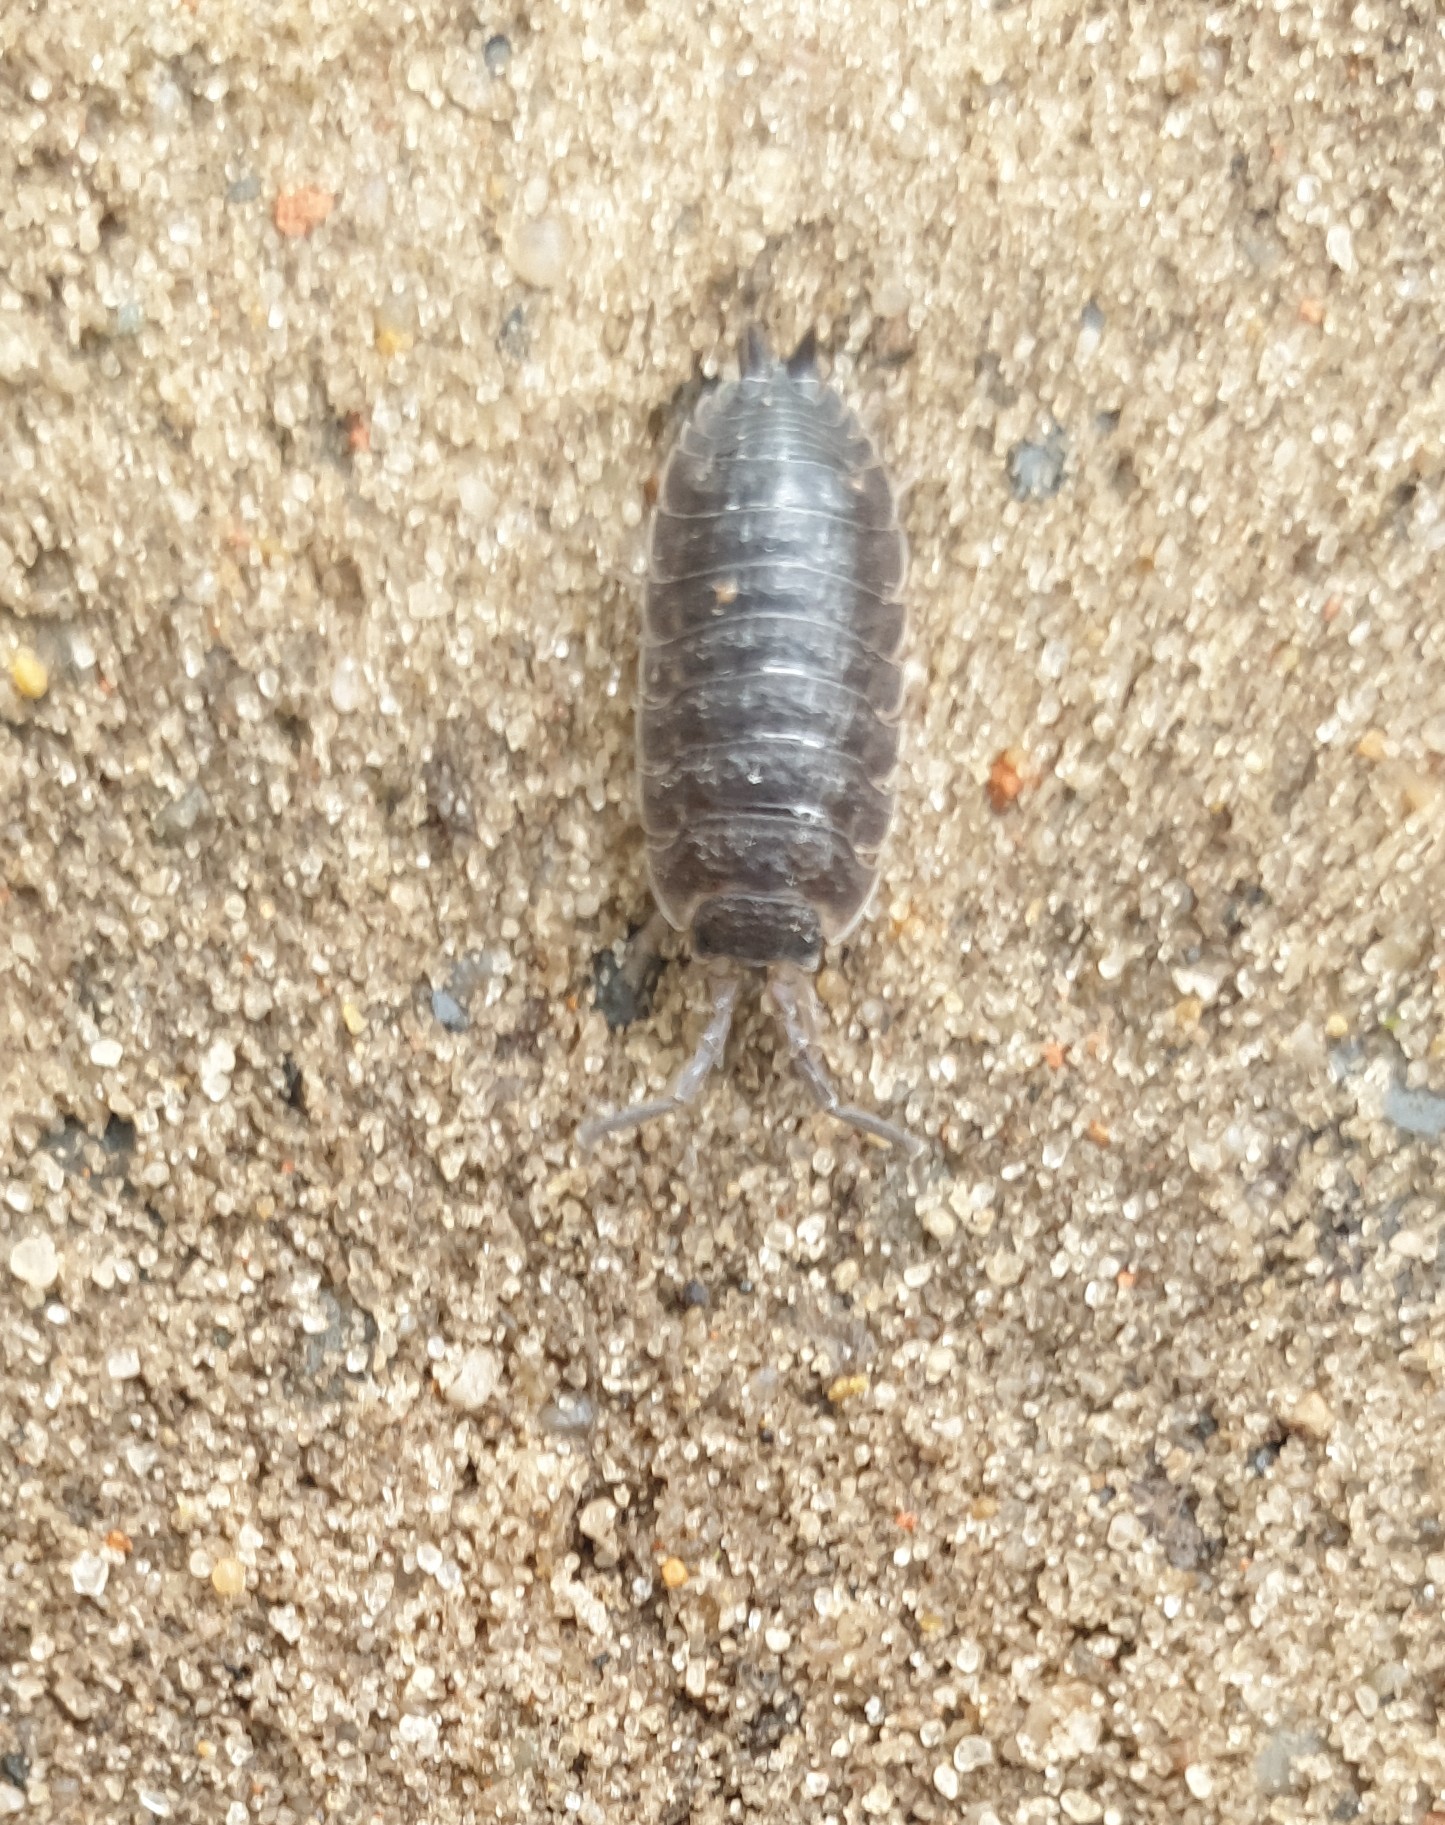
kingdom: Animalia
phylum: Arthropoda
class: Malacostraca
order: Isopoda
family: Porcellionidae
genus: Porcellio
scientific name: Porcellio scaber
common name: Common rough woodlouse
